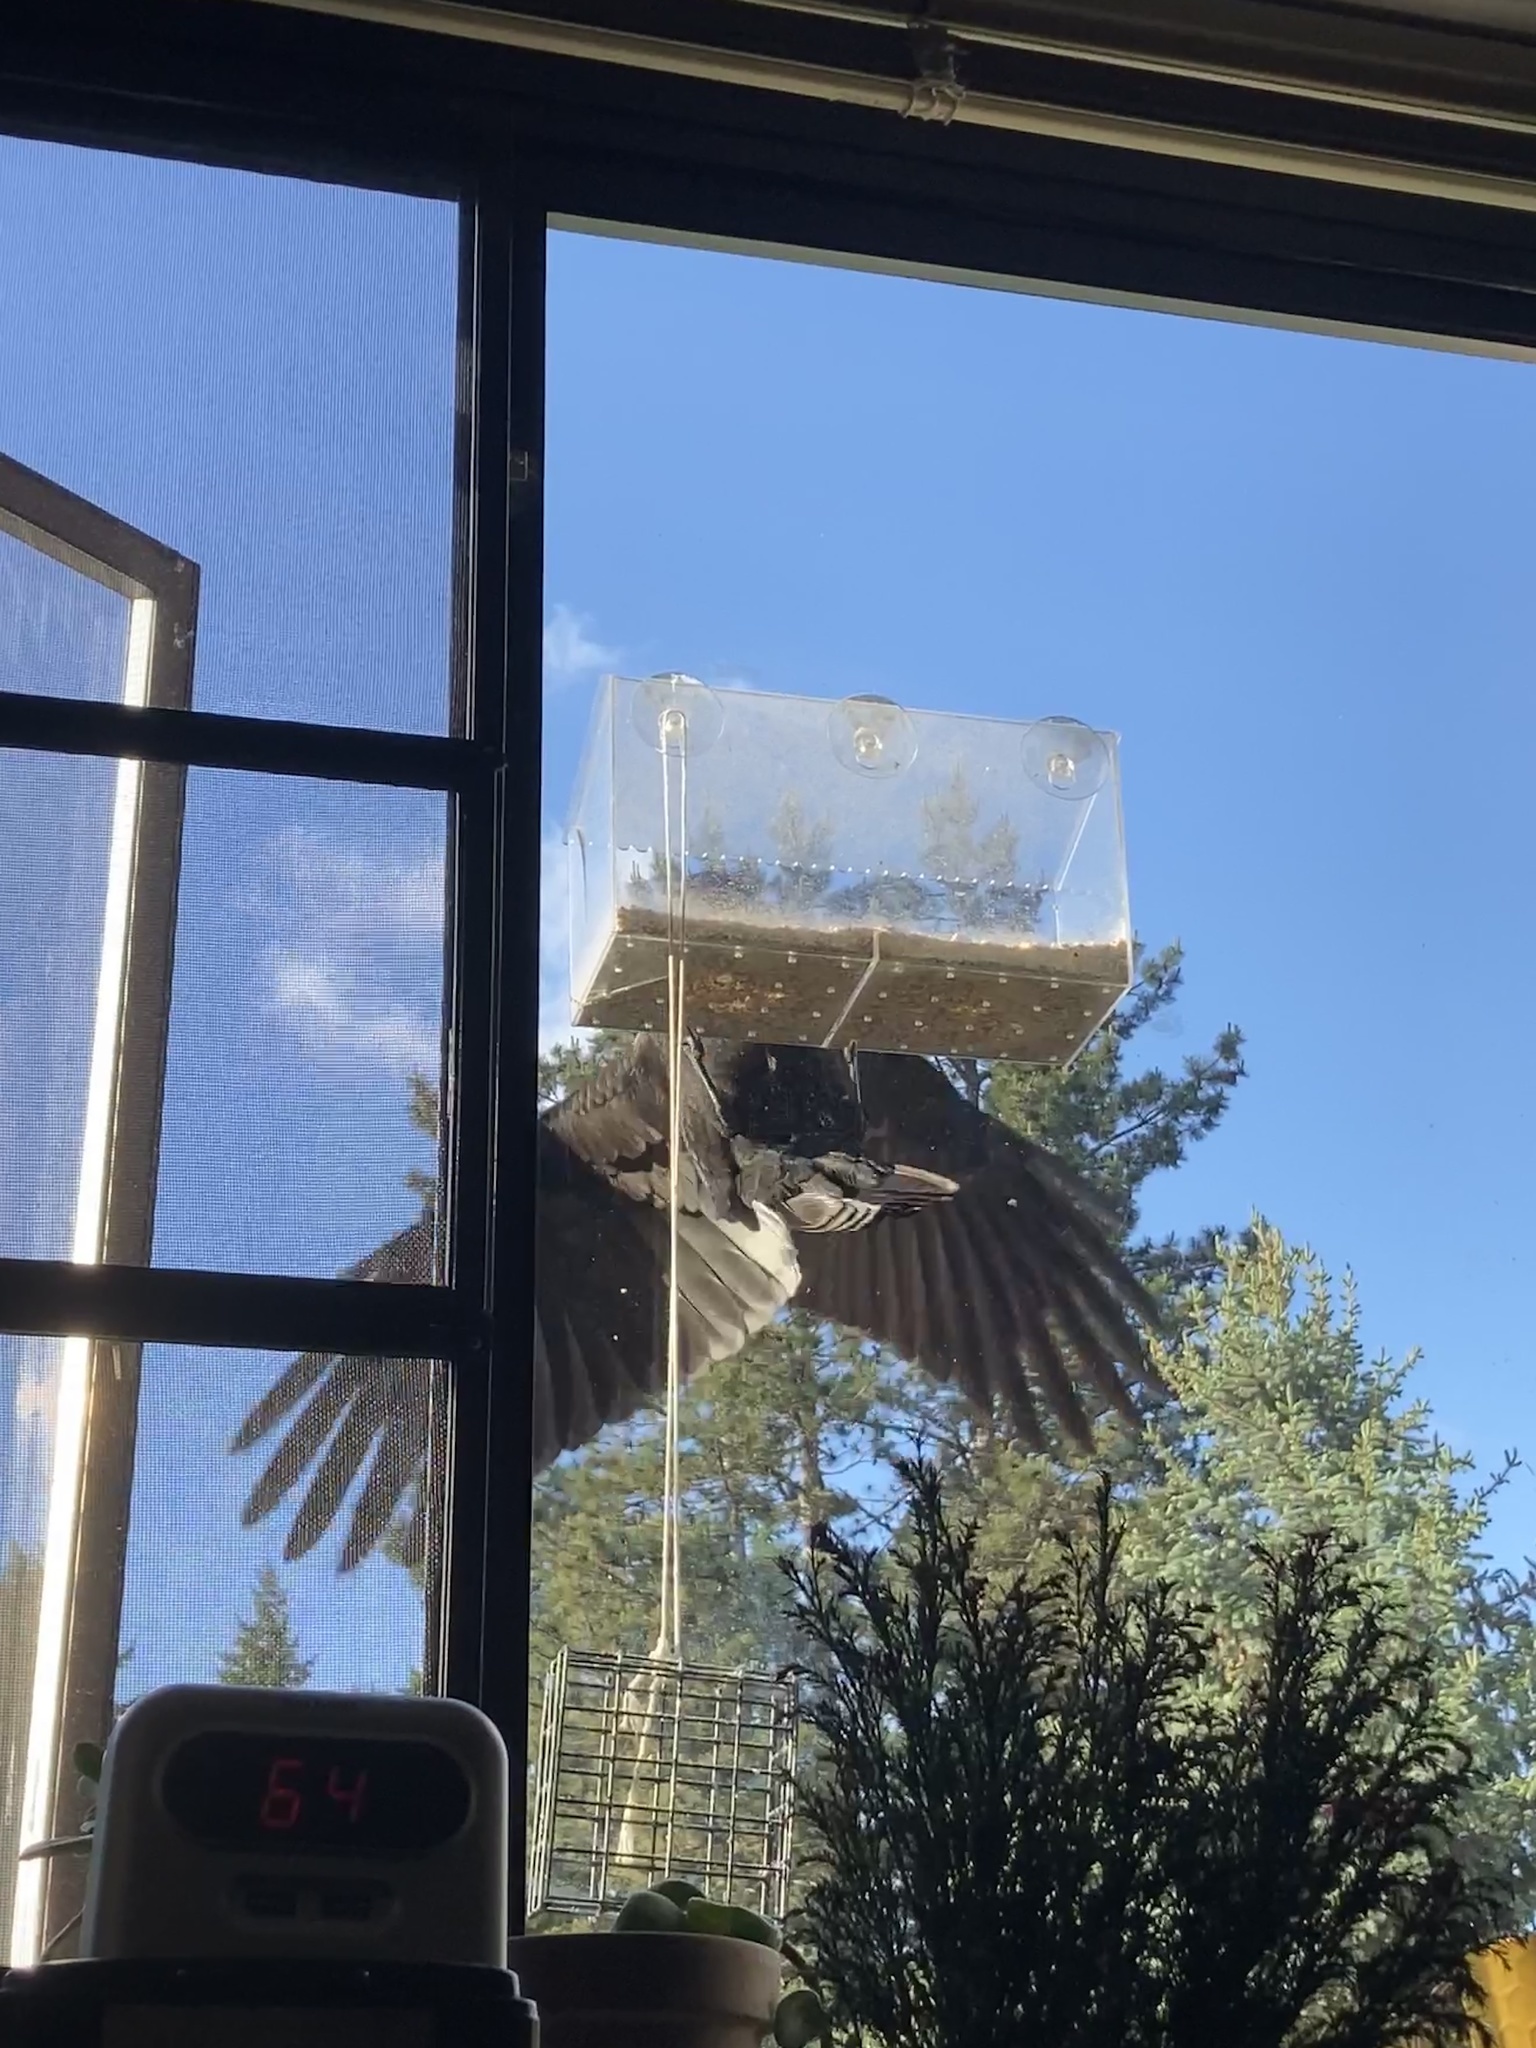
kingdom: Animalia
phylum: Chordata
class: Aves
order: Passeriformes
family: Corvidae
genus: Corvus
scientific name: Corvus brachyrhynchos
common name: American crow
